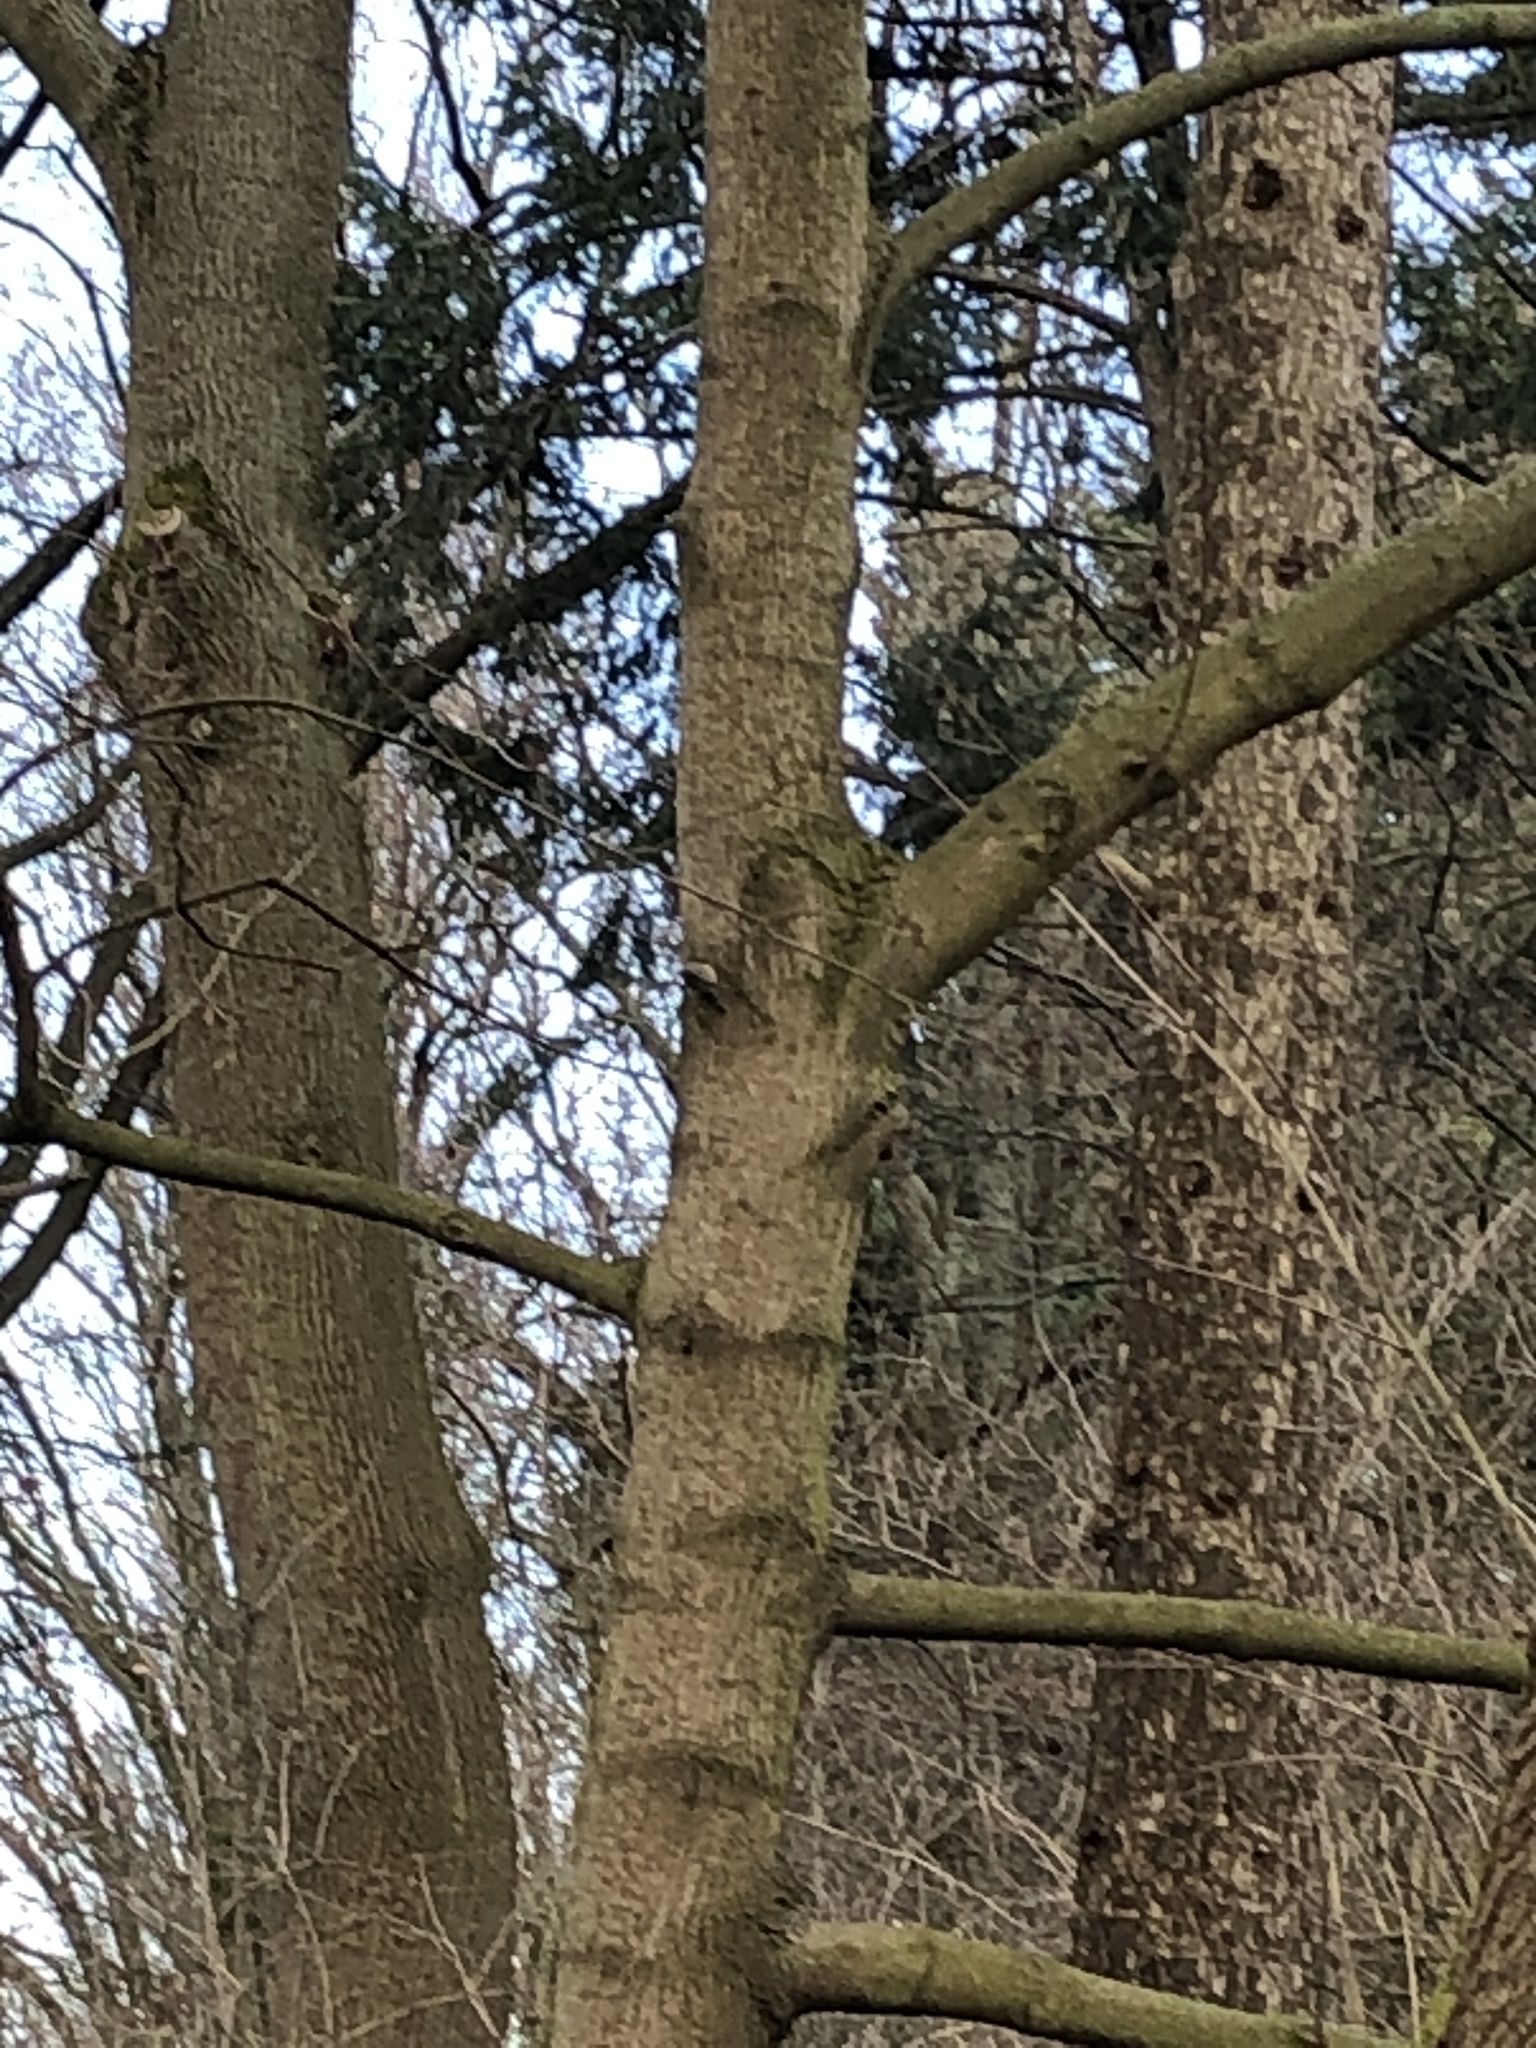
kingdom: Animalia
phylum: Chordata
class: Aves
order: Passeriformes
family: Certhiidae
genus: Certhia
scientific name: Certhia
